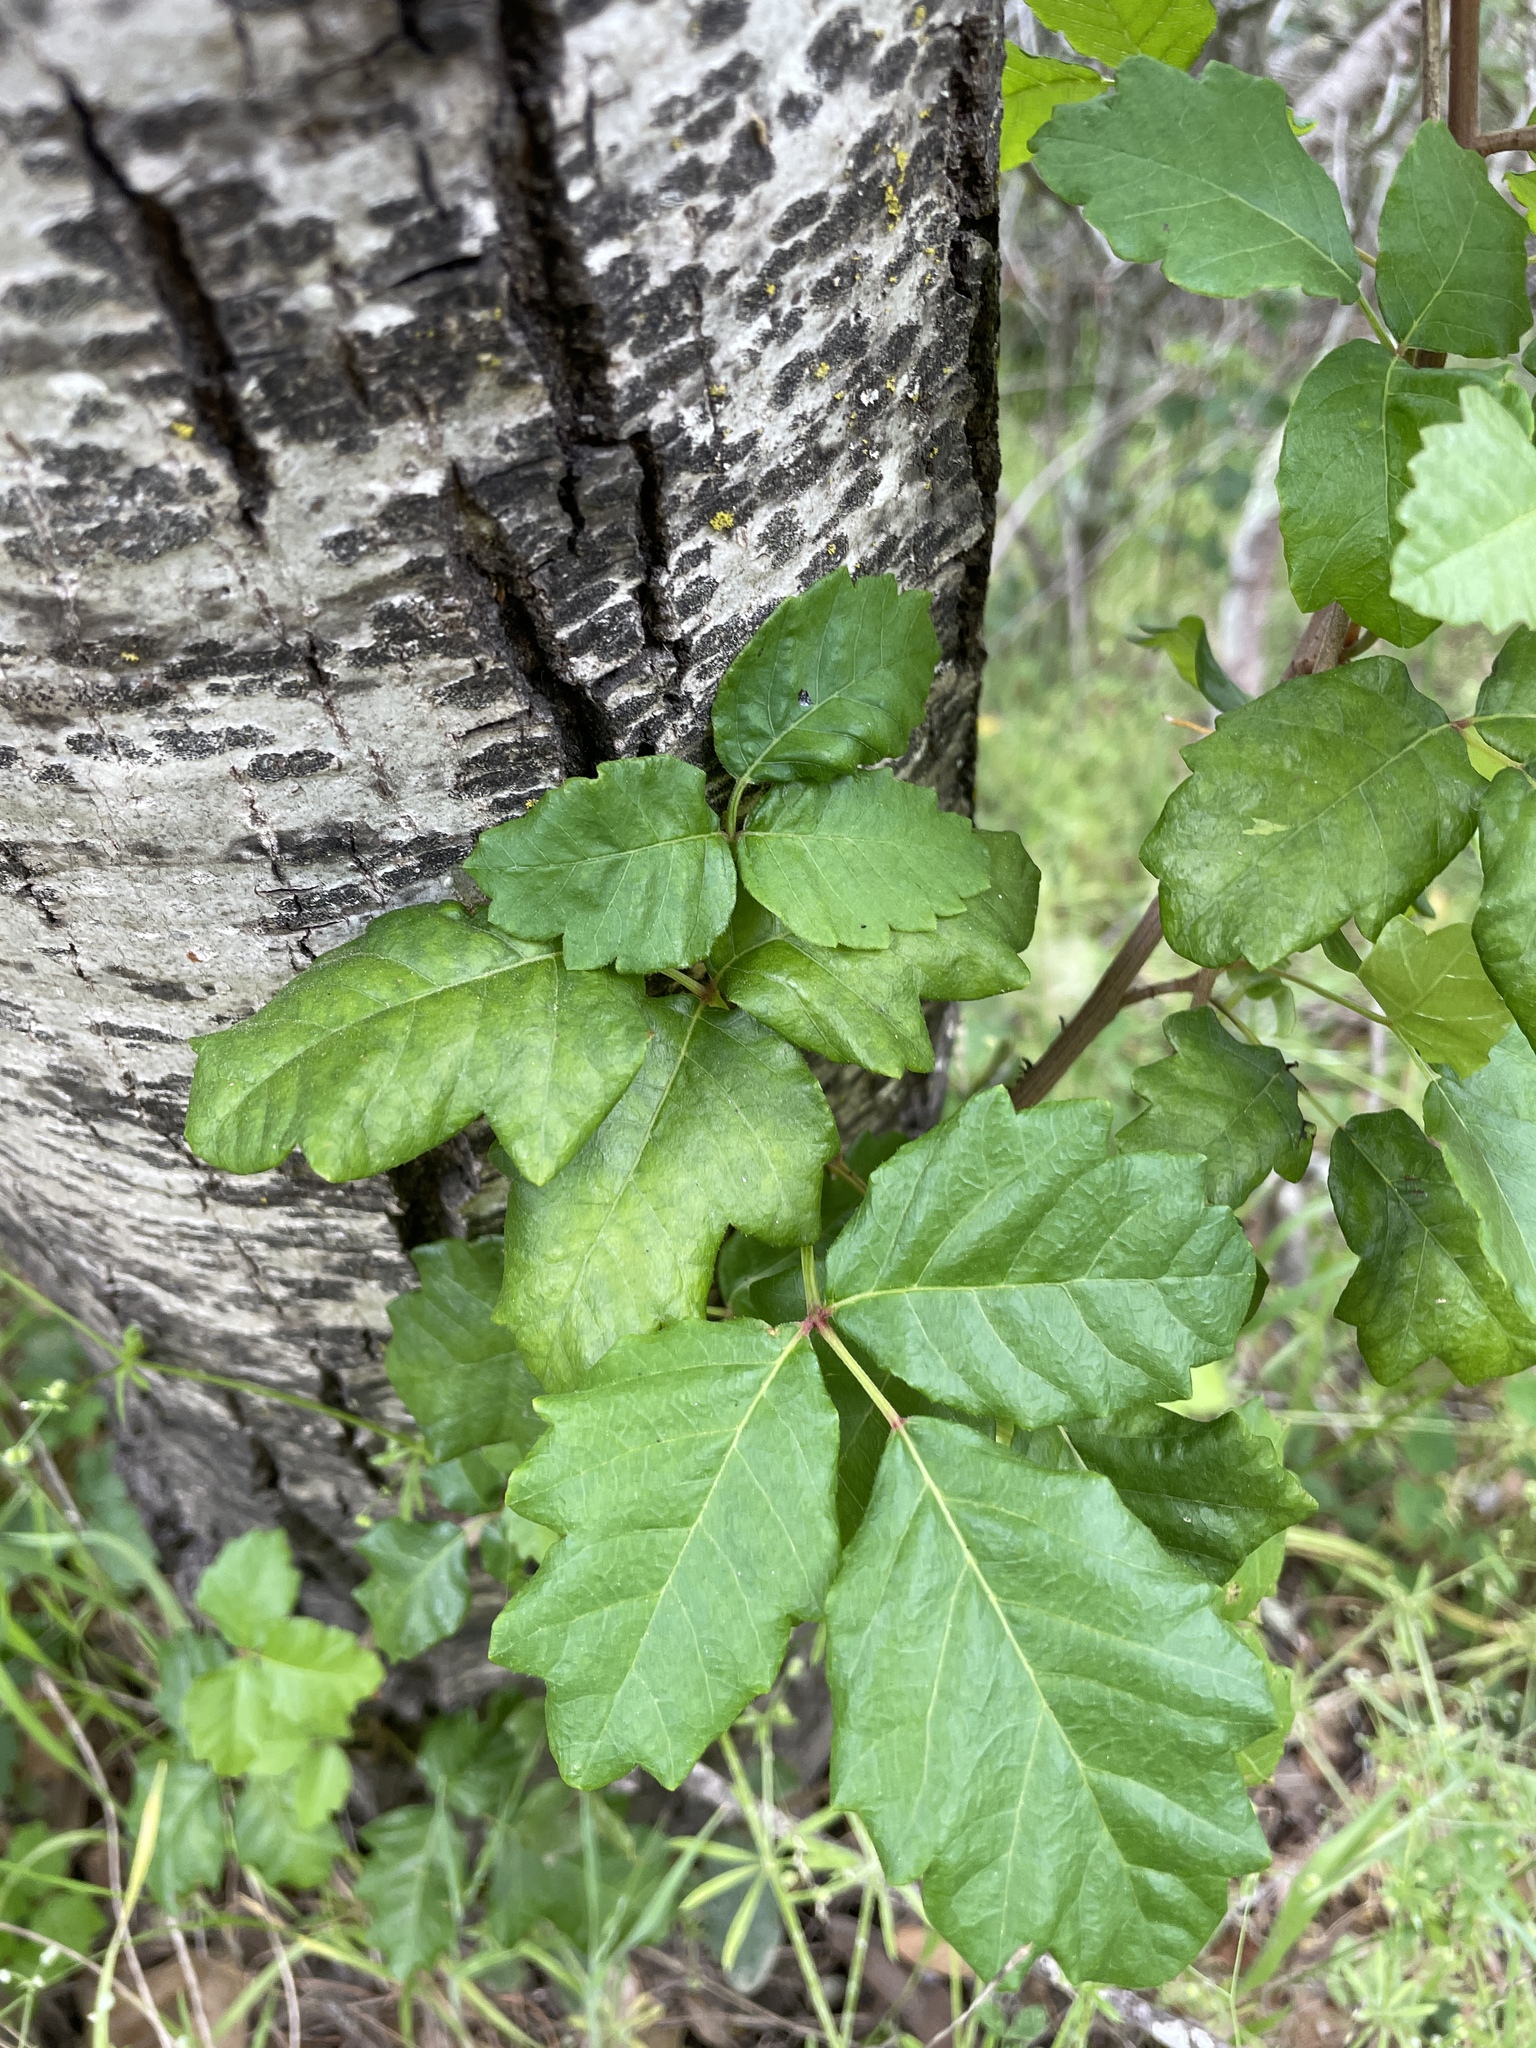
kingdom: Plantae
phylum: Tracheophyta
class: Magnoliopsida
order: Sapindales
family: Anacardiaceae
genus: Toxicodendron
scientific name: Toxicodendron diversilobum
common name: Pacific poison-oak
